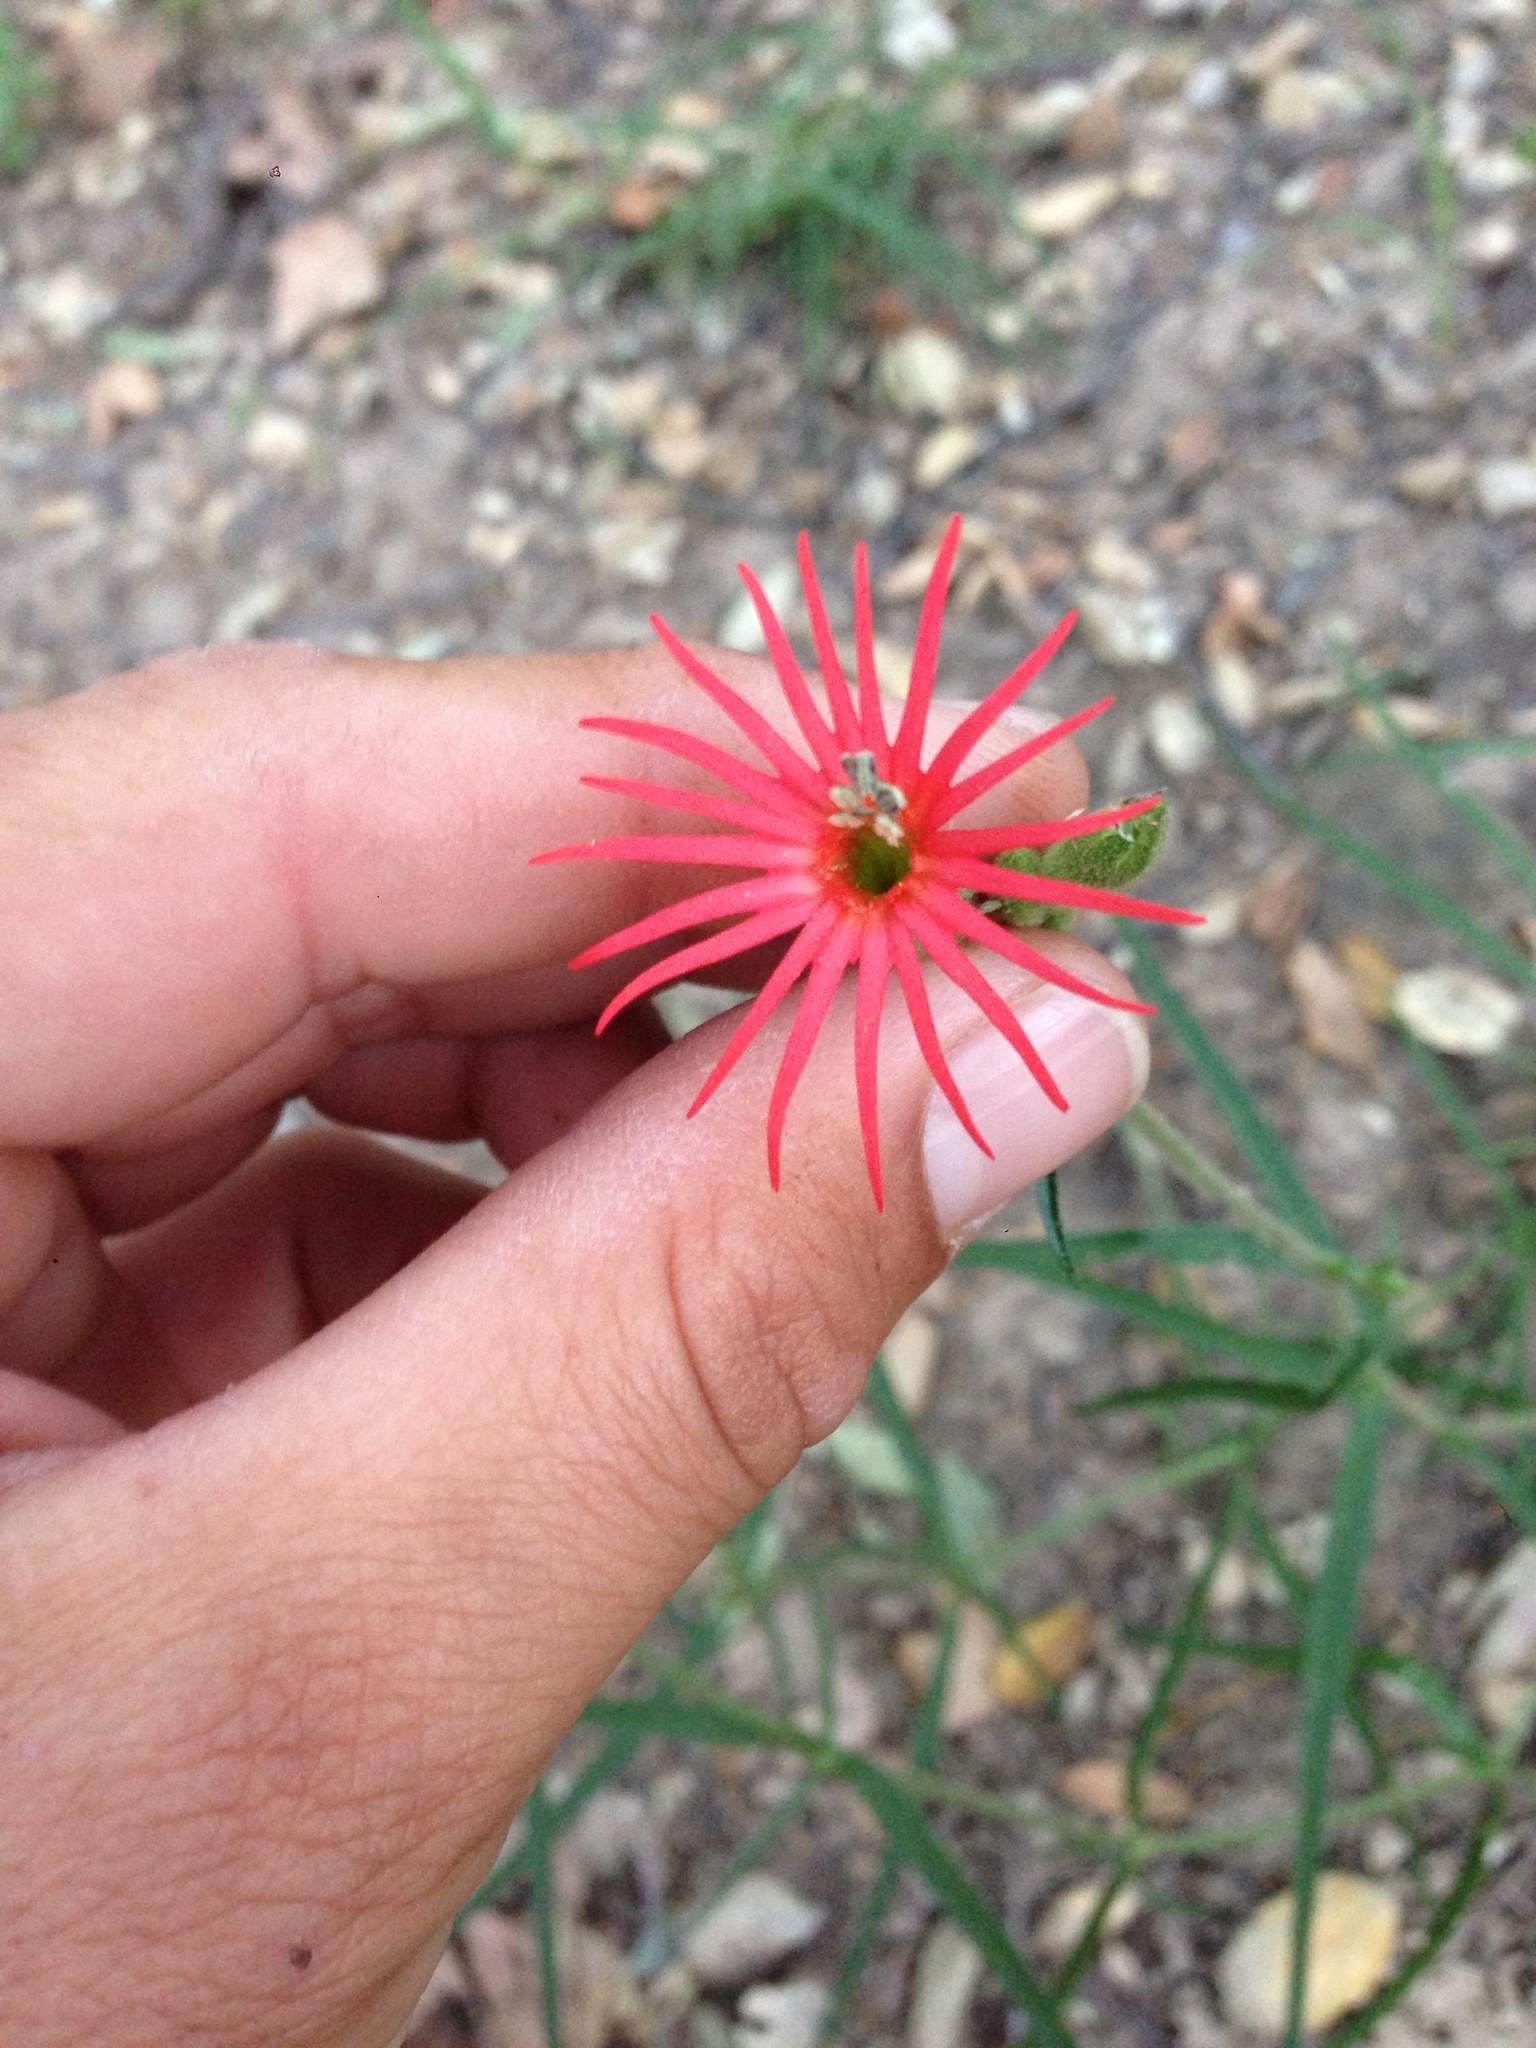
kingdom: Plantae
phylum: Tracheophyta
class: Magnoliopsida
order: Caryophyllales
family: Caryophyllaceae
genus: Silene
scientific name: Silene laciniata
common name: Indian-pink
